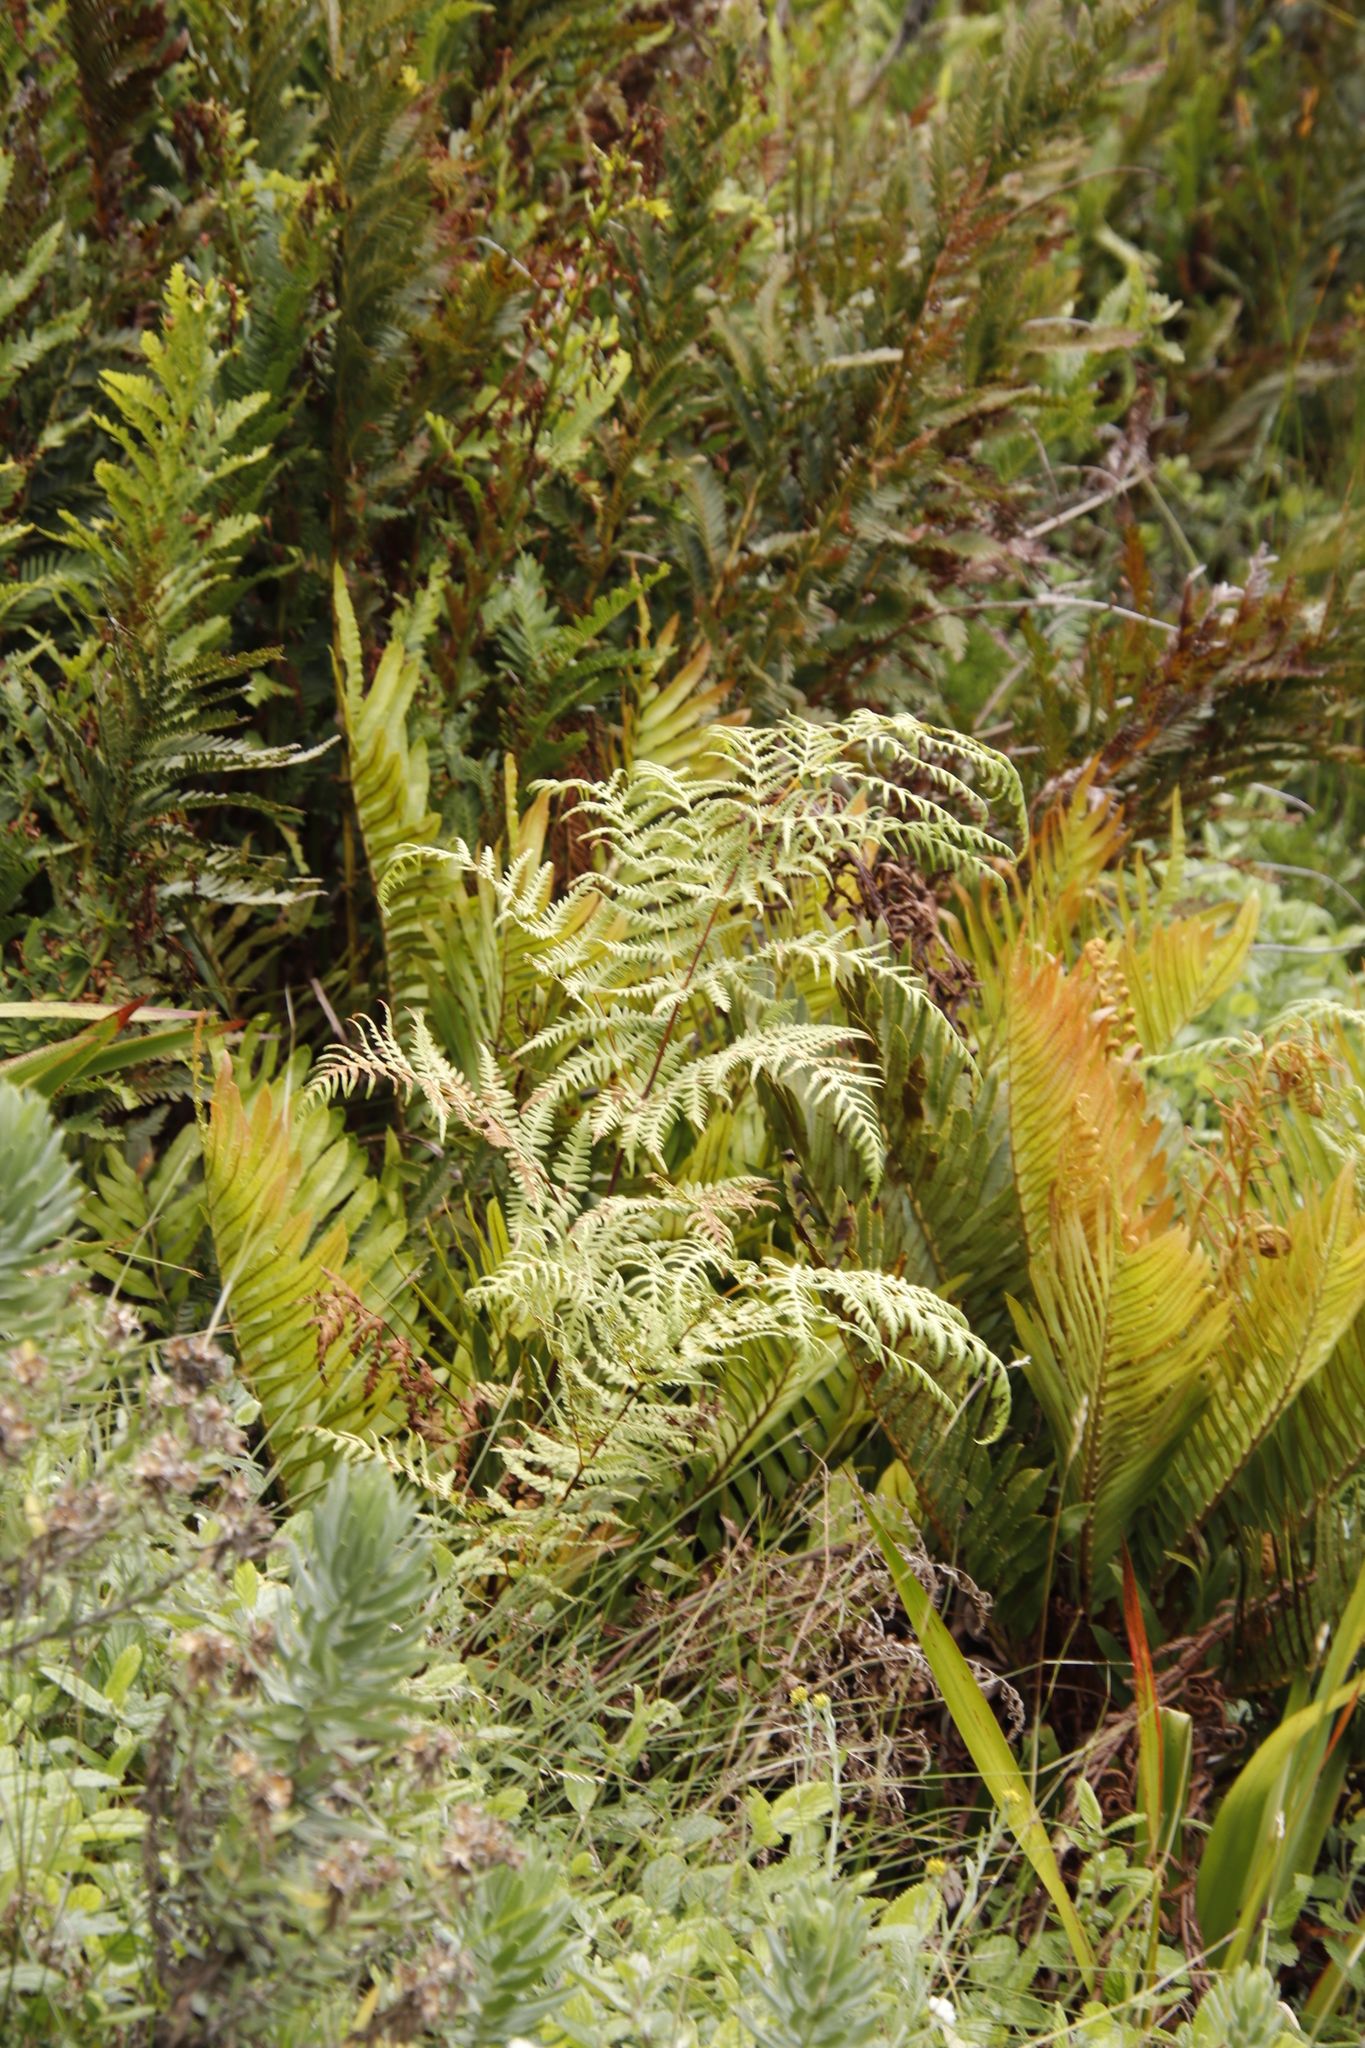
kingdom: Plantae
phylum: Tracheophyta
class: Polypodiopsida
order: Polypodiales
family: Dennstaedtiaceae
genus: Pteridium
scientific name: Pteridium aquilinum
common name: Bracken
